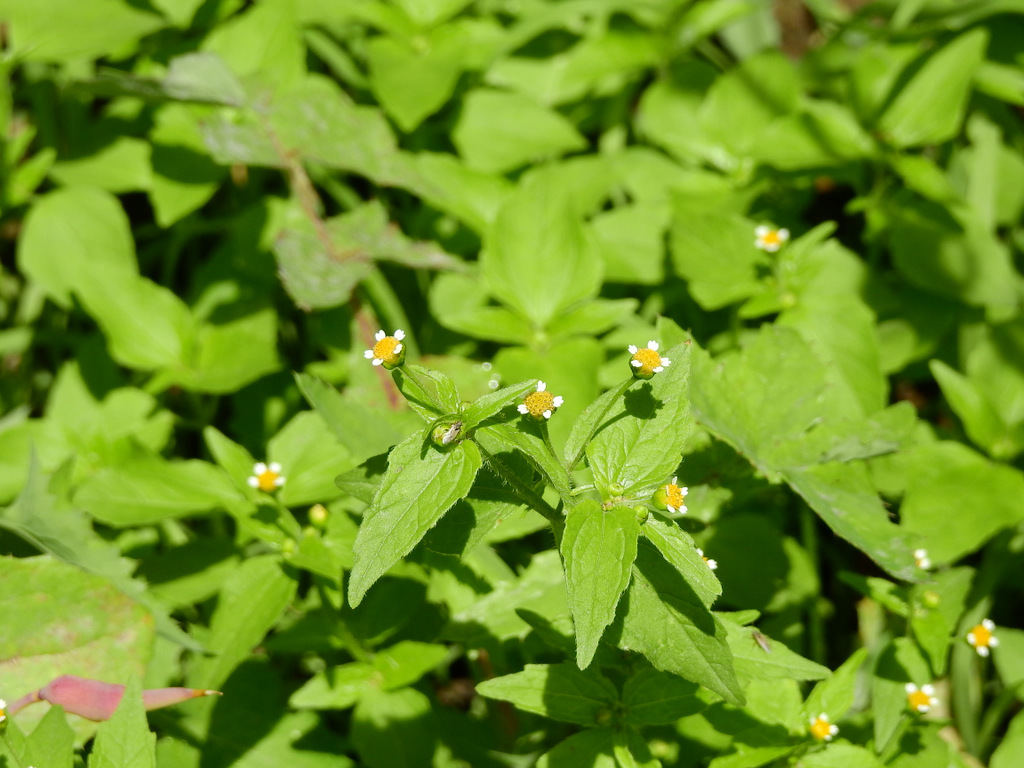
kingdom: Plantae
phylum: Tracheophyta
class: Magnoliopsida
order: Asterales
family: Asteraceae
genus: Galinsoga
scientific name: Galinsoga parviflora
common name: Gallant soldier
